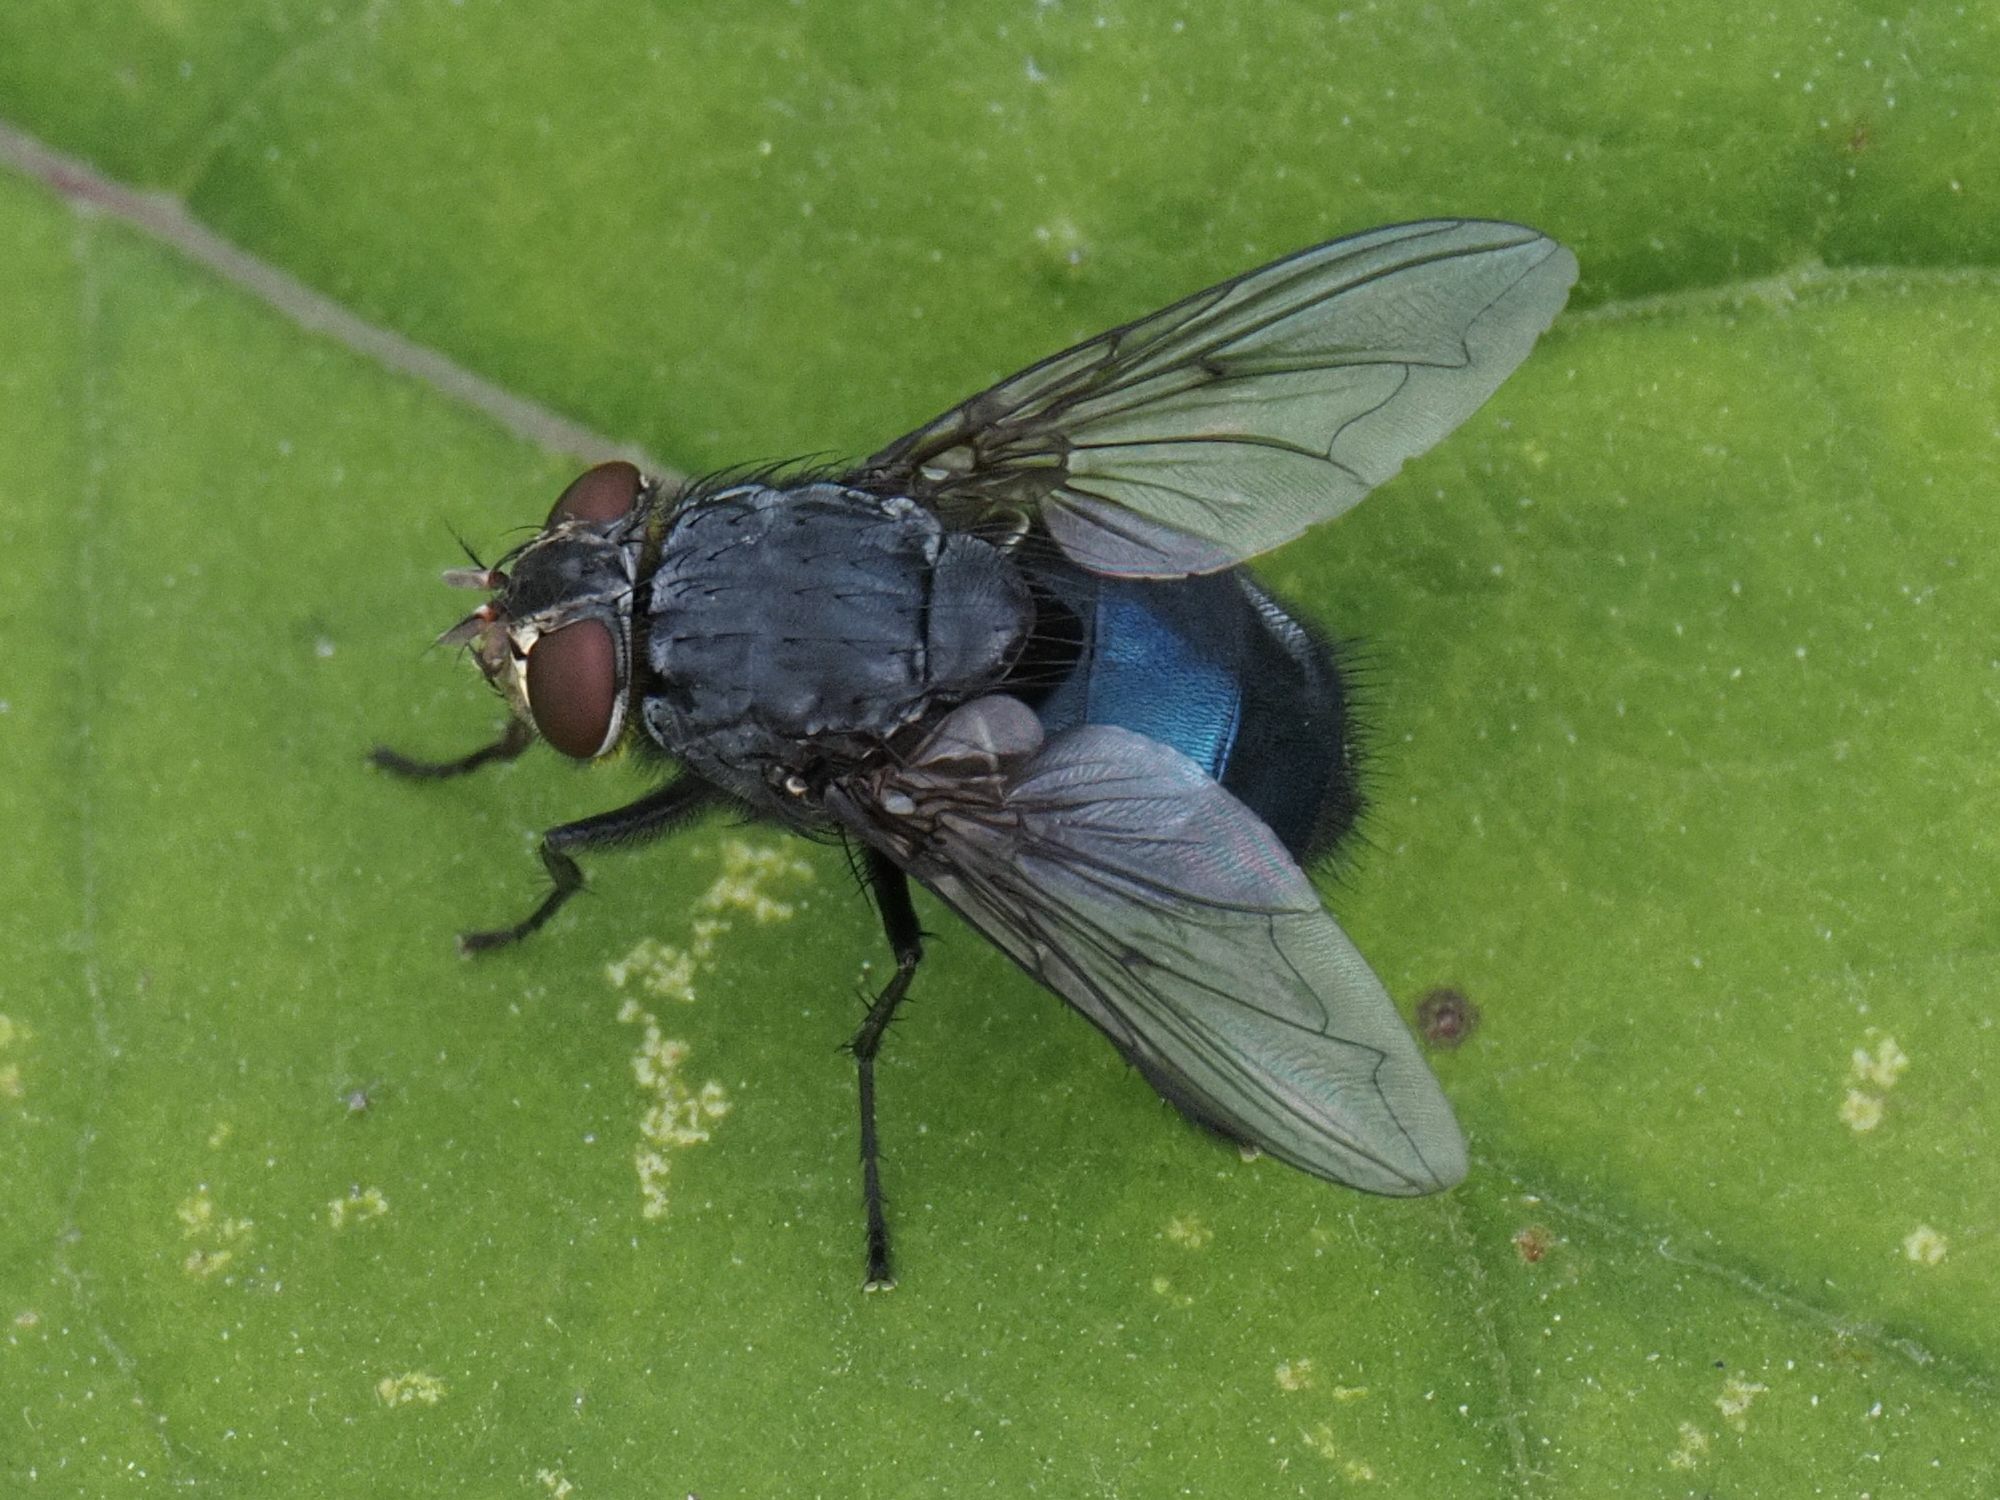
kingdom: Animalia
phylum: Arthropoda
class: Insecta
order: Diptera
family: Calliphoridae
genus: Calliphora
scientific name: Calliphora vomitoria
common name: Blue bottle fly
